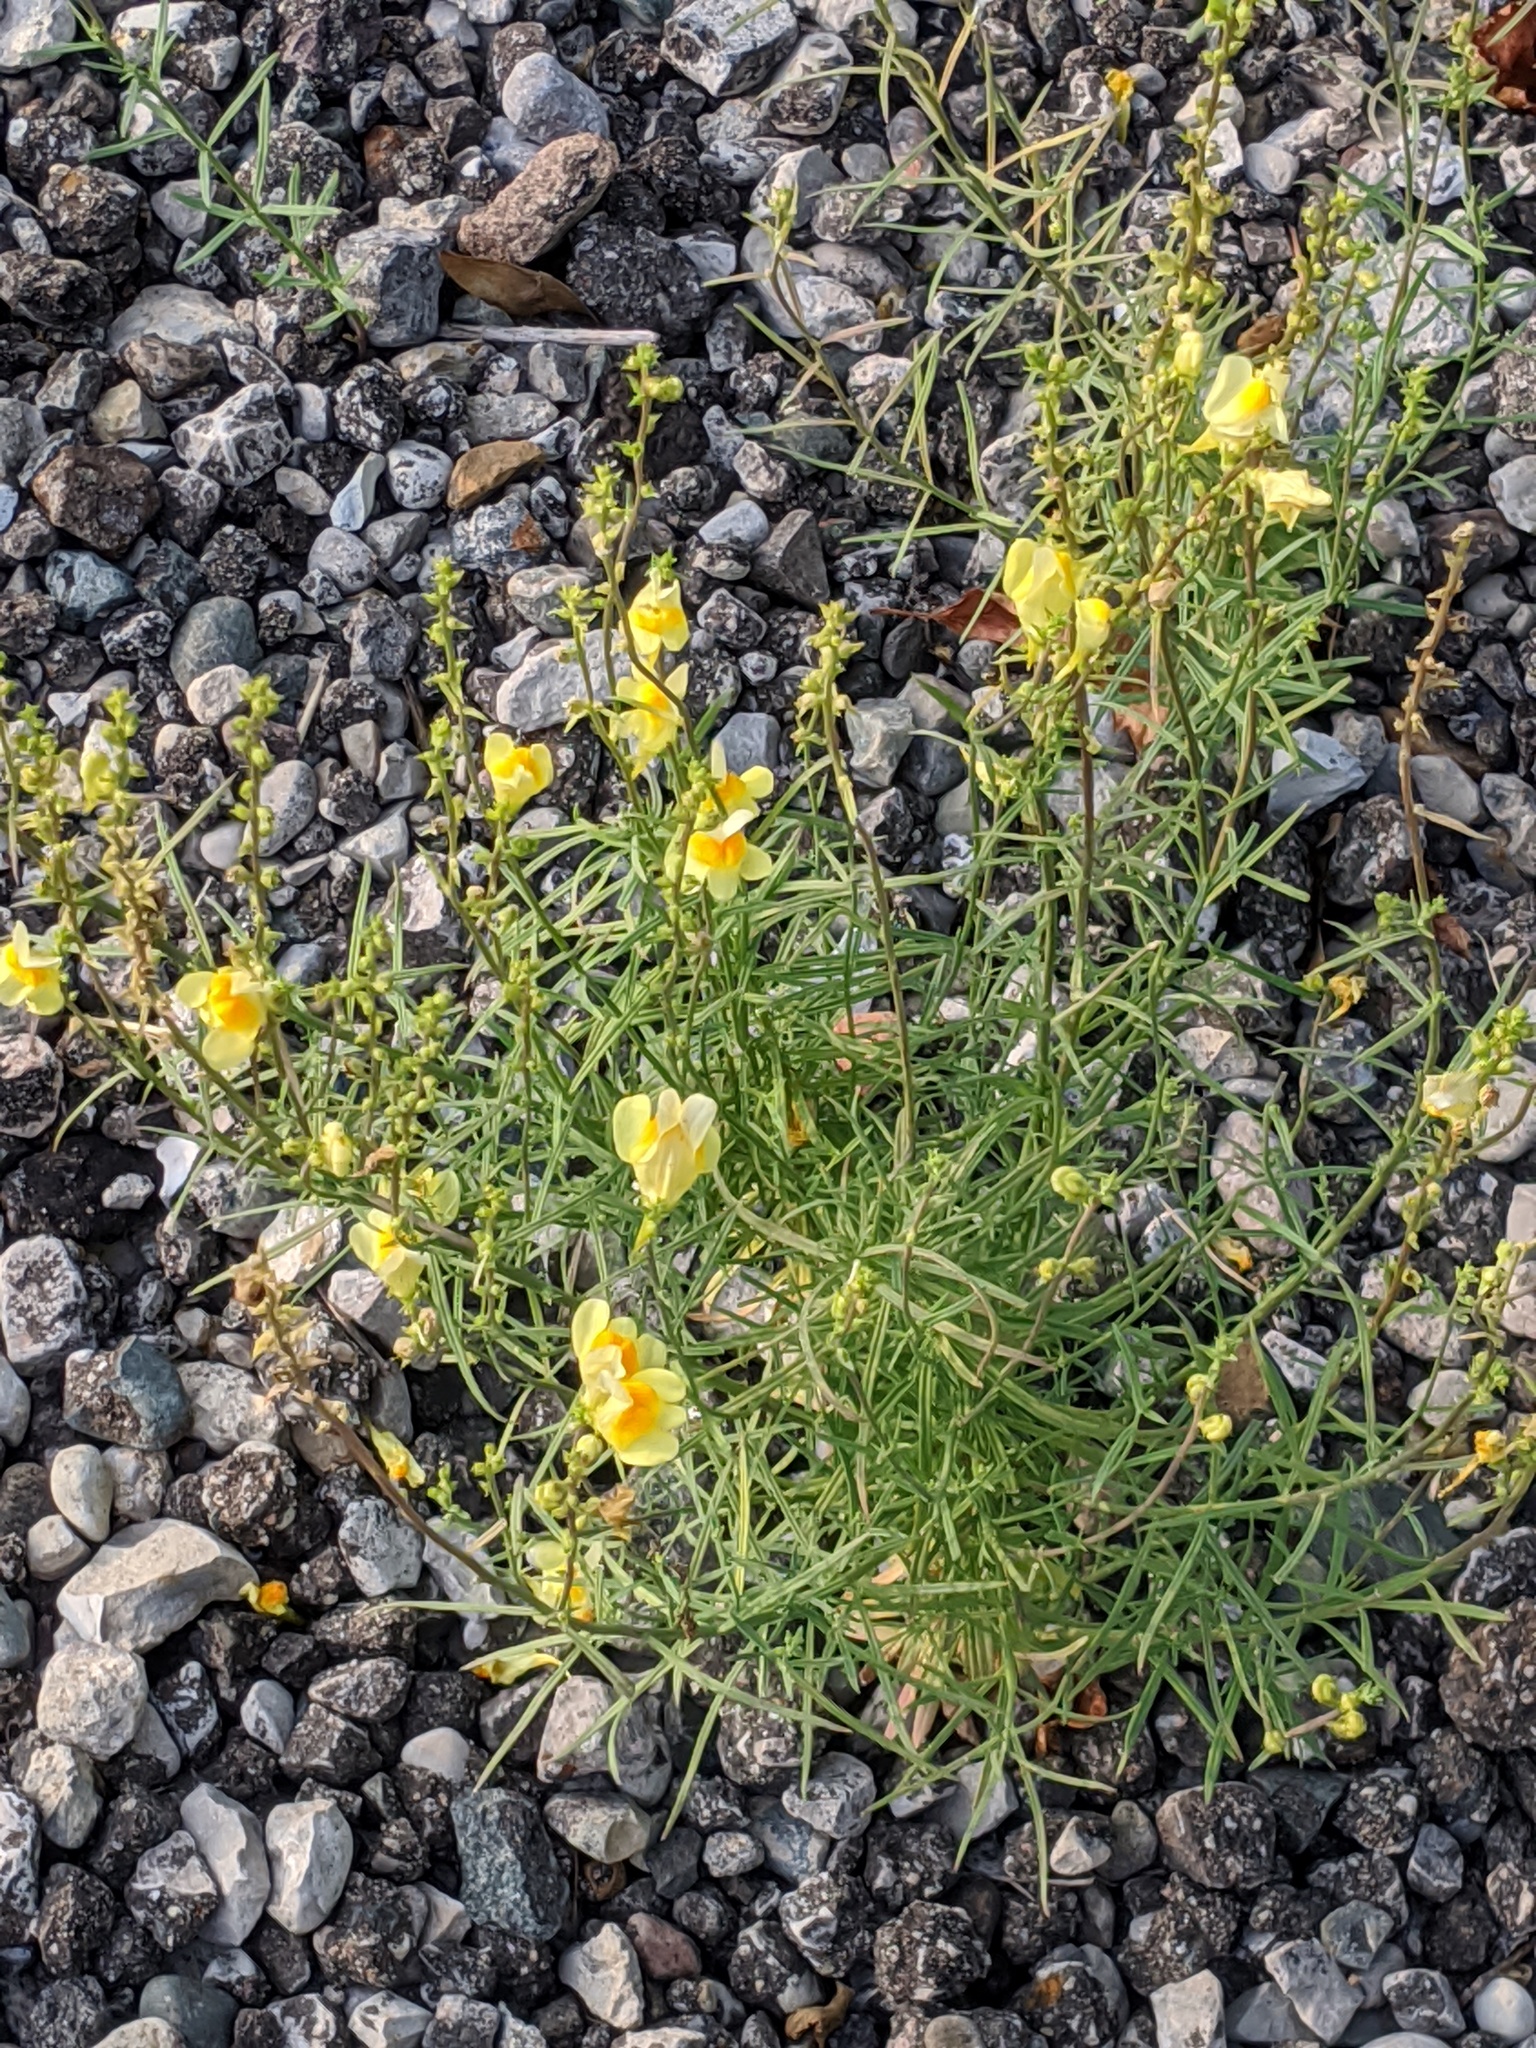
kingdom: Plantae
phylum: Tracheophyta
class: Magnoliopsida
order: Lamiales
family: Plantaginaceae
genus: Linaria
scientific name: Linaria vulgaris
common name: Butter and eggs
